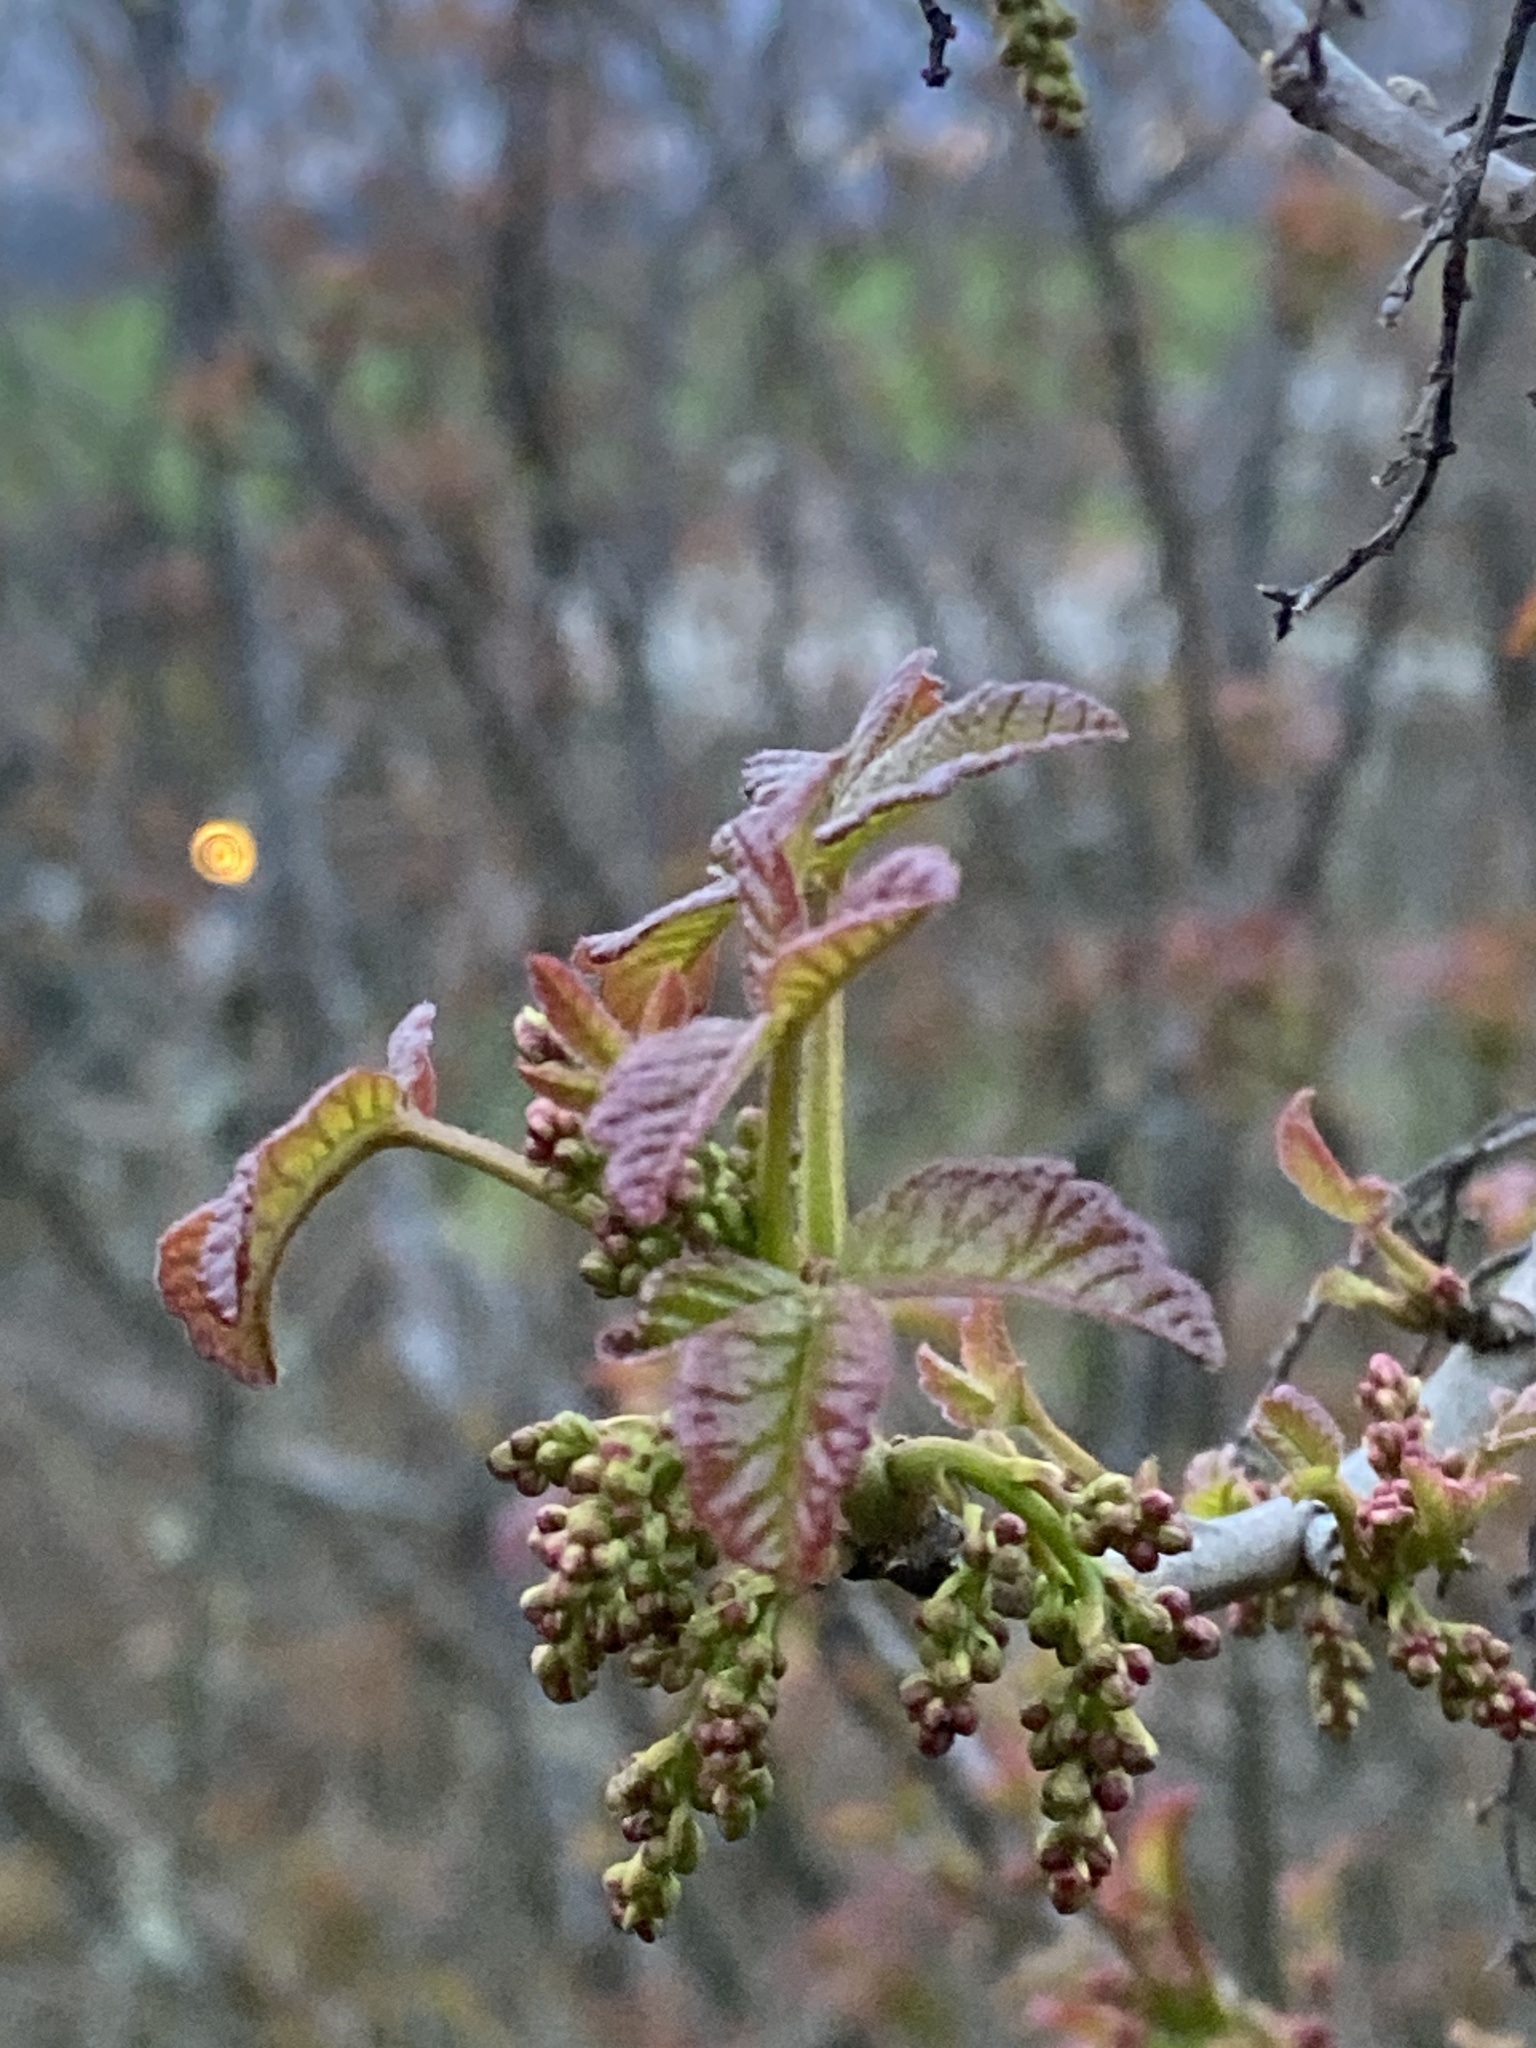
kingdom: Plantae
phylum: Tracheophyta
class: Magnoliopsida
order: Sapindales
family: Anacardiaceae
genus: Toxicodendron
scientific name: Toxicodendron diversilobum
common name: Pacific poison-oak
